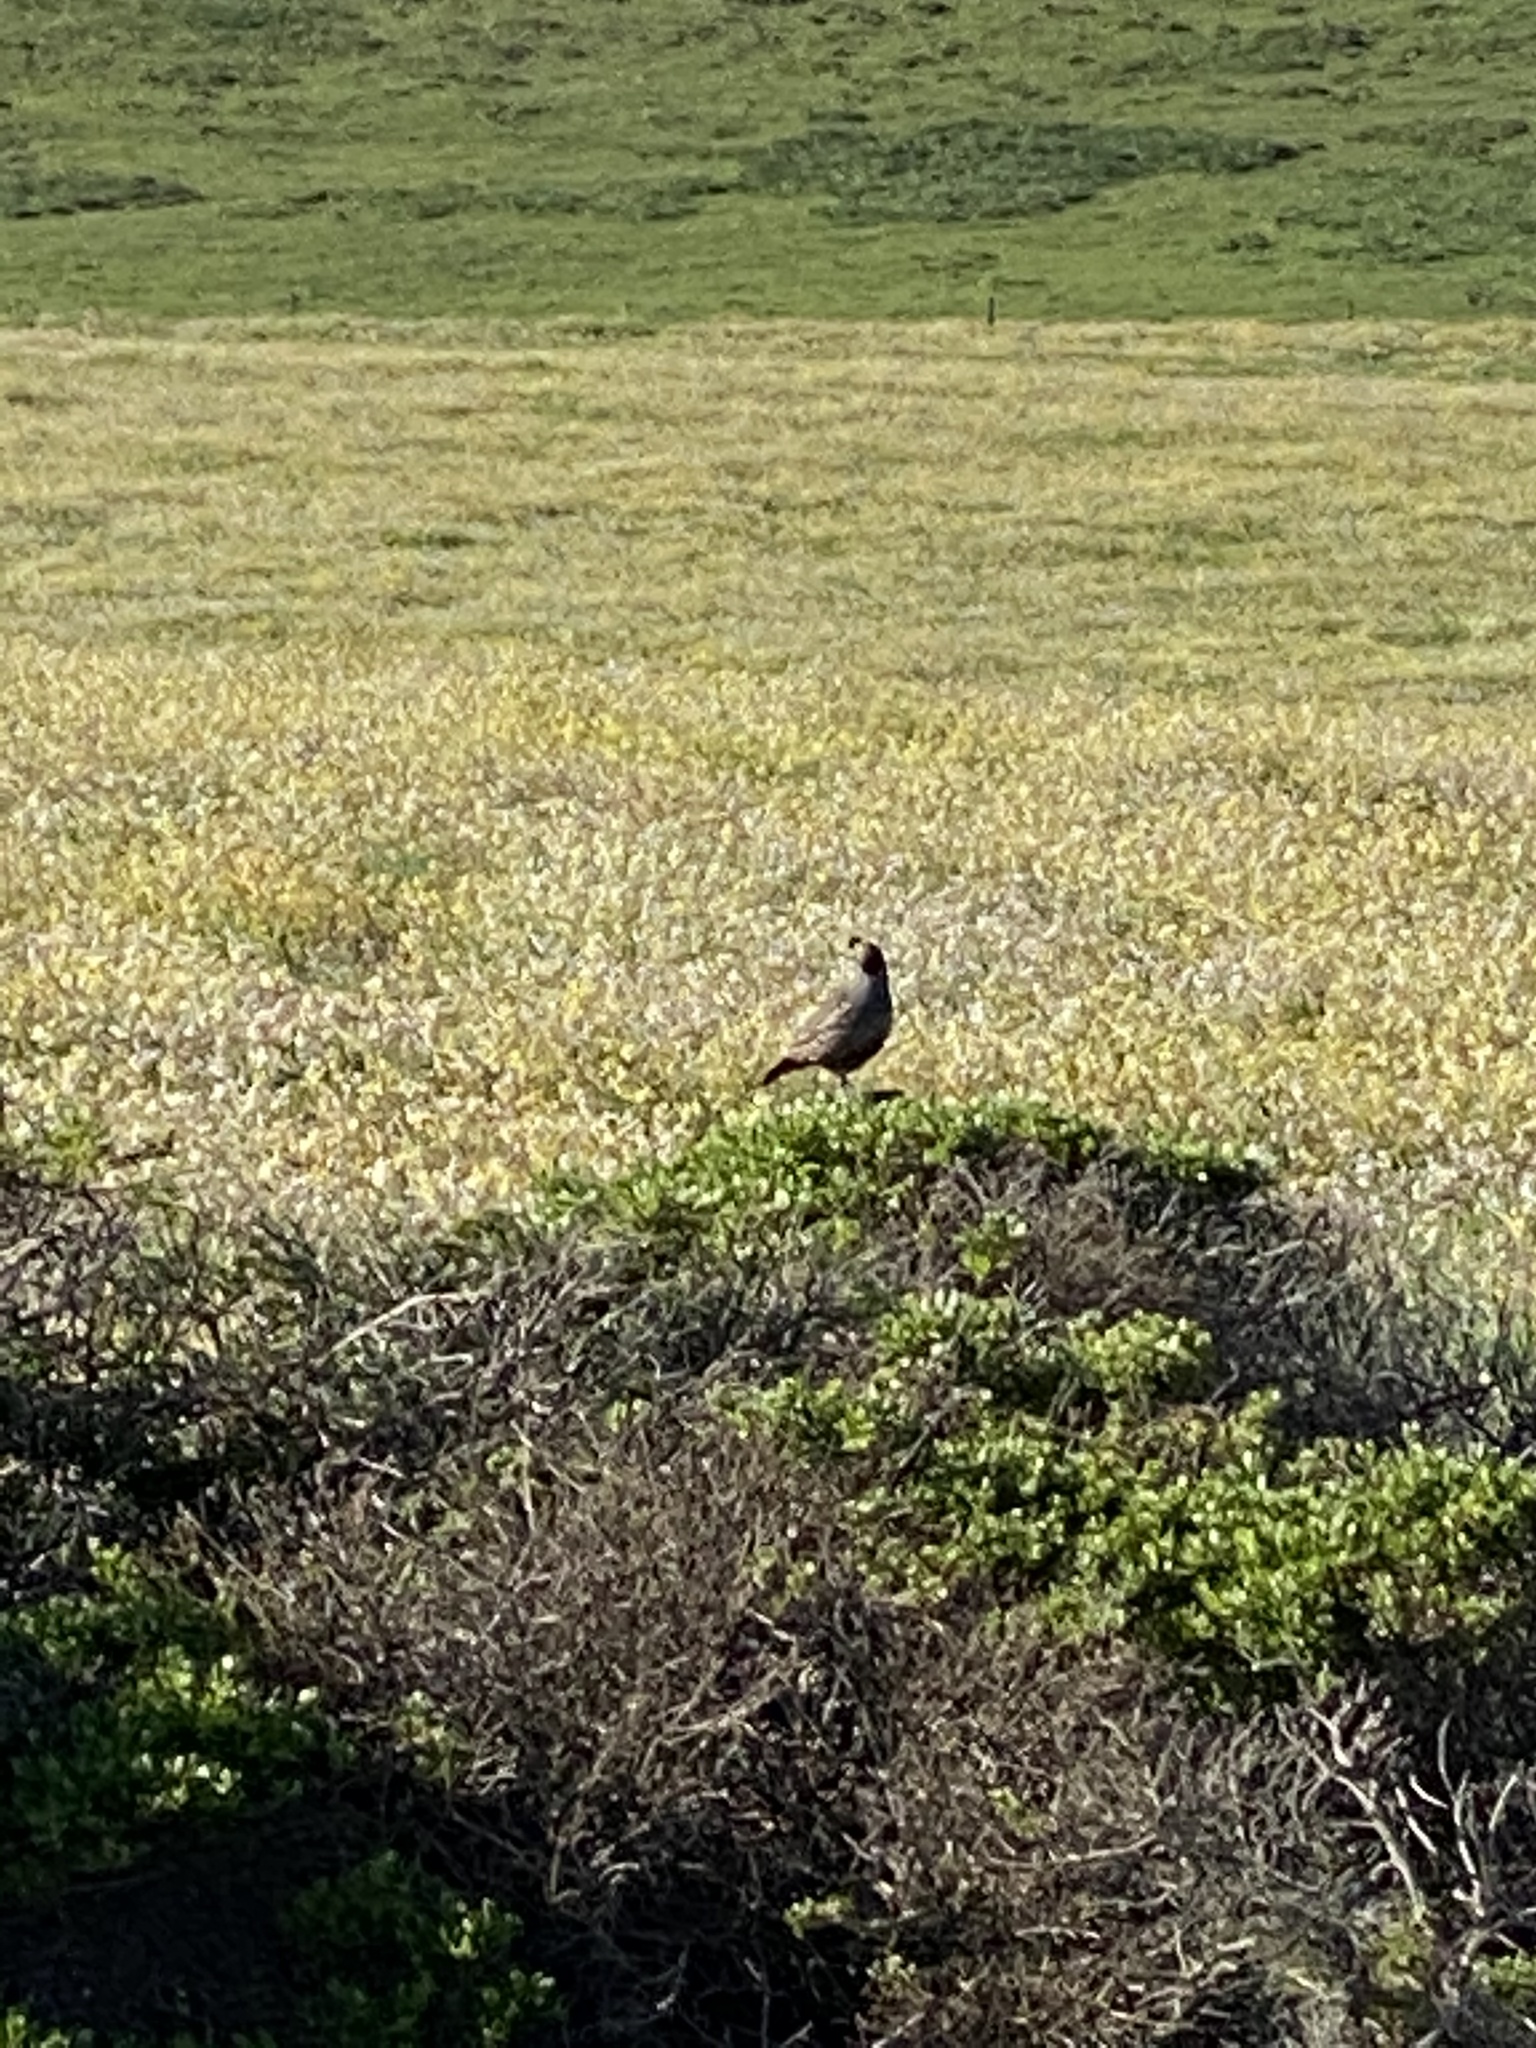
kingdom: Animalia
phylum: Chordata
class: Aves
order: Galliformes
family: Odontophoridae
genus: Callipepla
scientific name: Callipepla californica
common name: California quail
